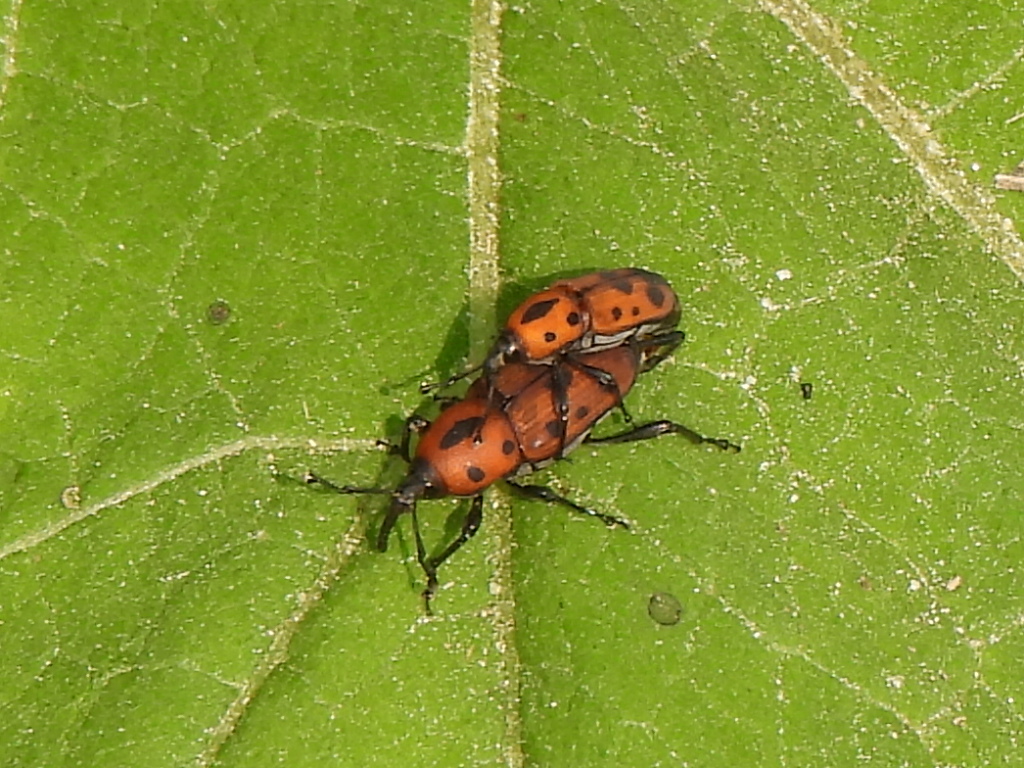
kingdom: Animalia
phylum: Arthropoda
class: Insecta
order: Coleoptera
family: Dryophthoridae
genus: Rhodobaenus
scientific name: Rhodobaenus quinquepunctatus
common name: Cocklebur weevil
